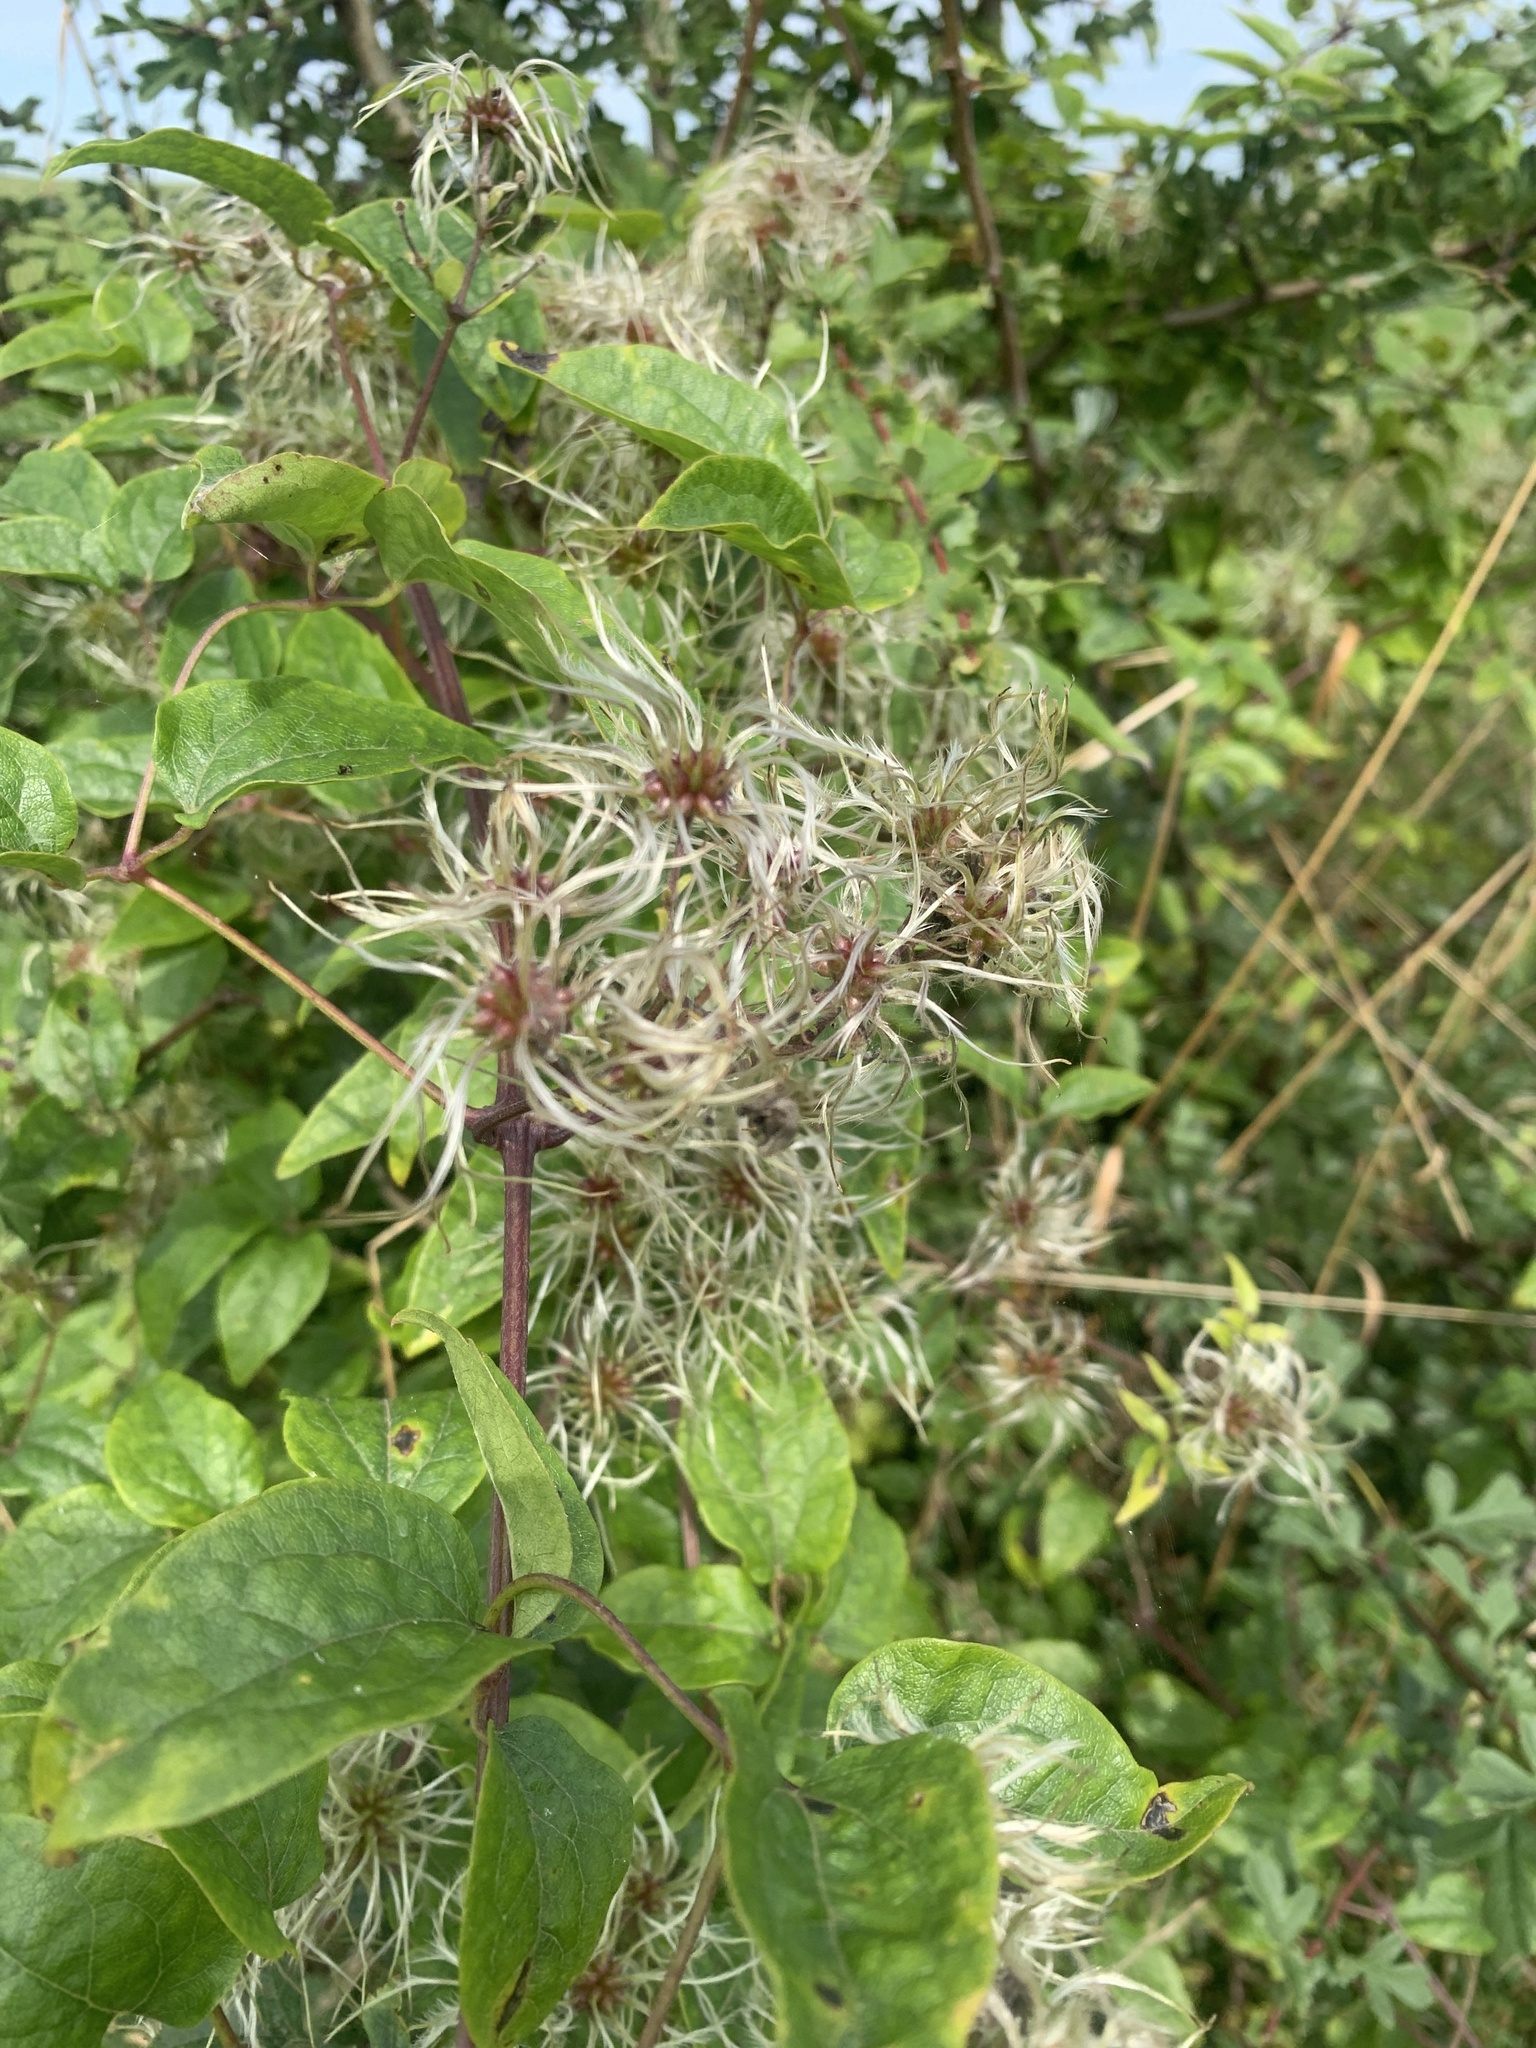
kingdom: Plantae
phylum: Tracheophyta
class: Magnoliopsida
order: Ranunculales
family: Ranunculaceae
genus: Clematis
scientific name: Clematis vitalba
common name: Evergreen clematis
